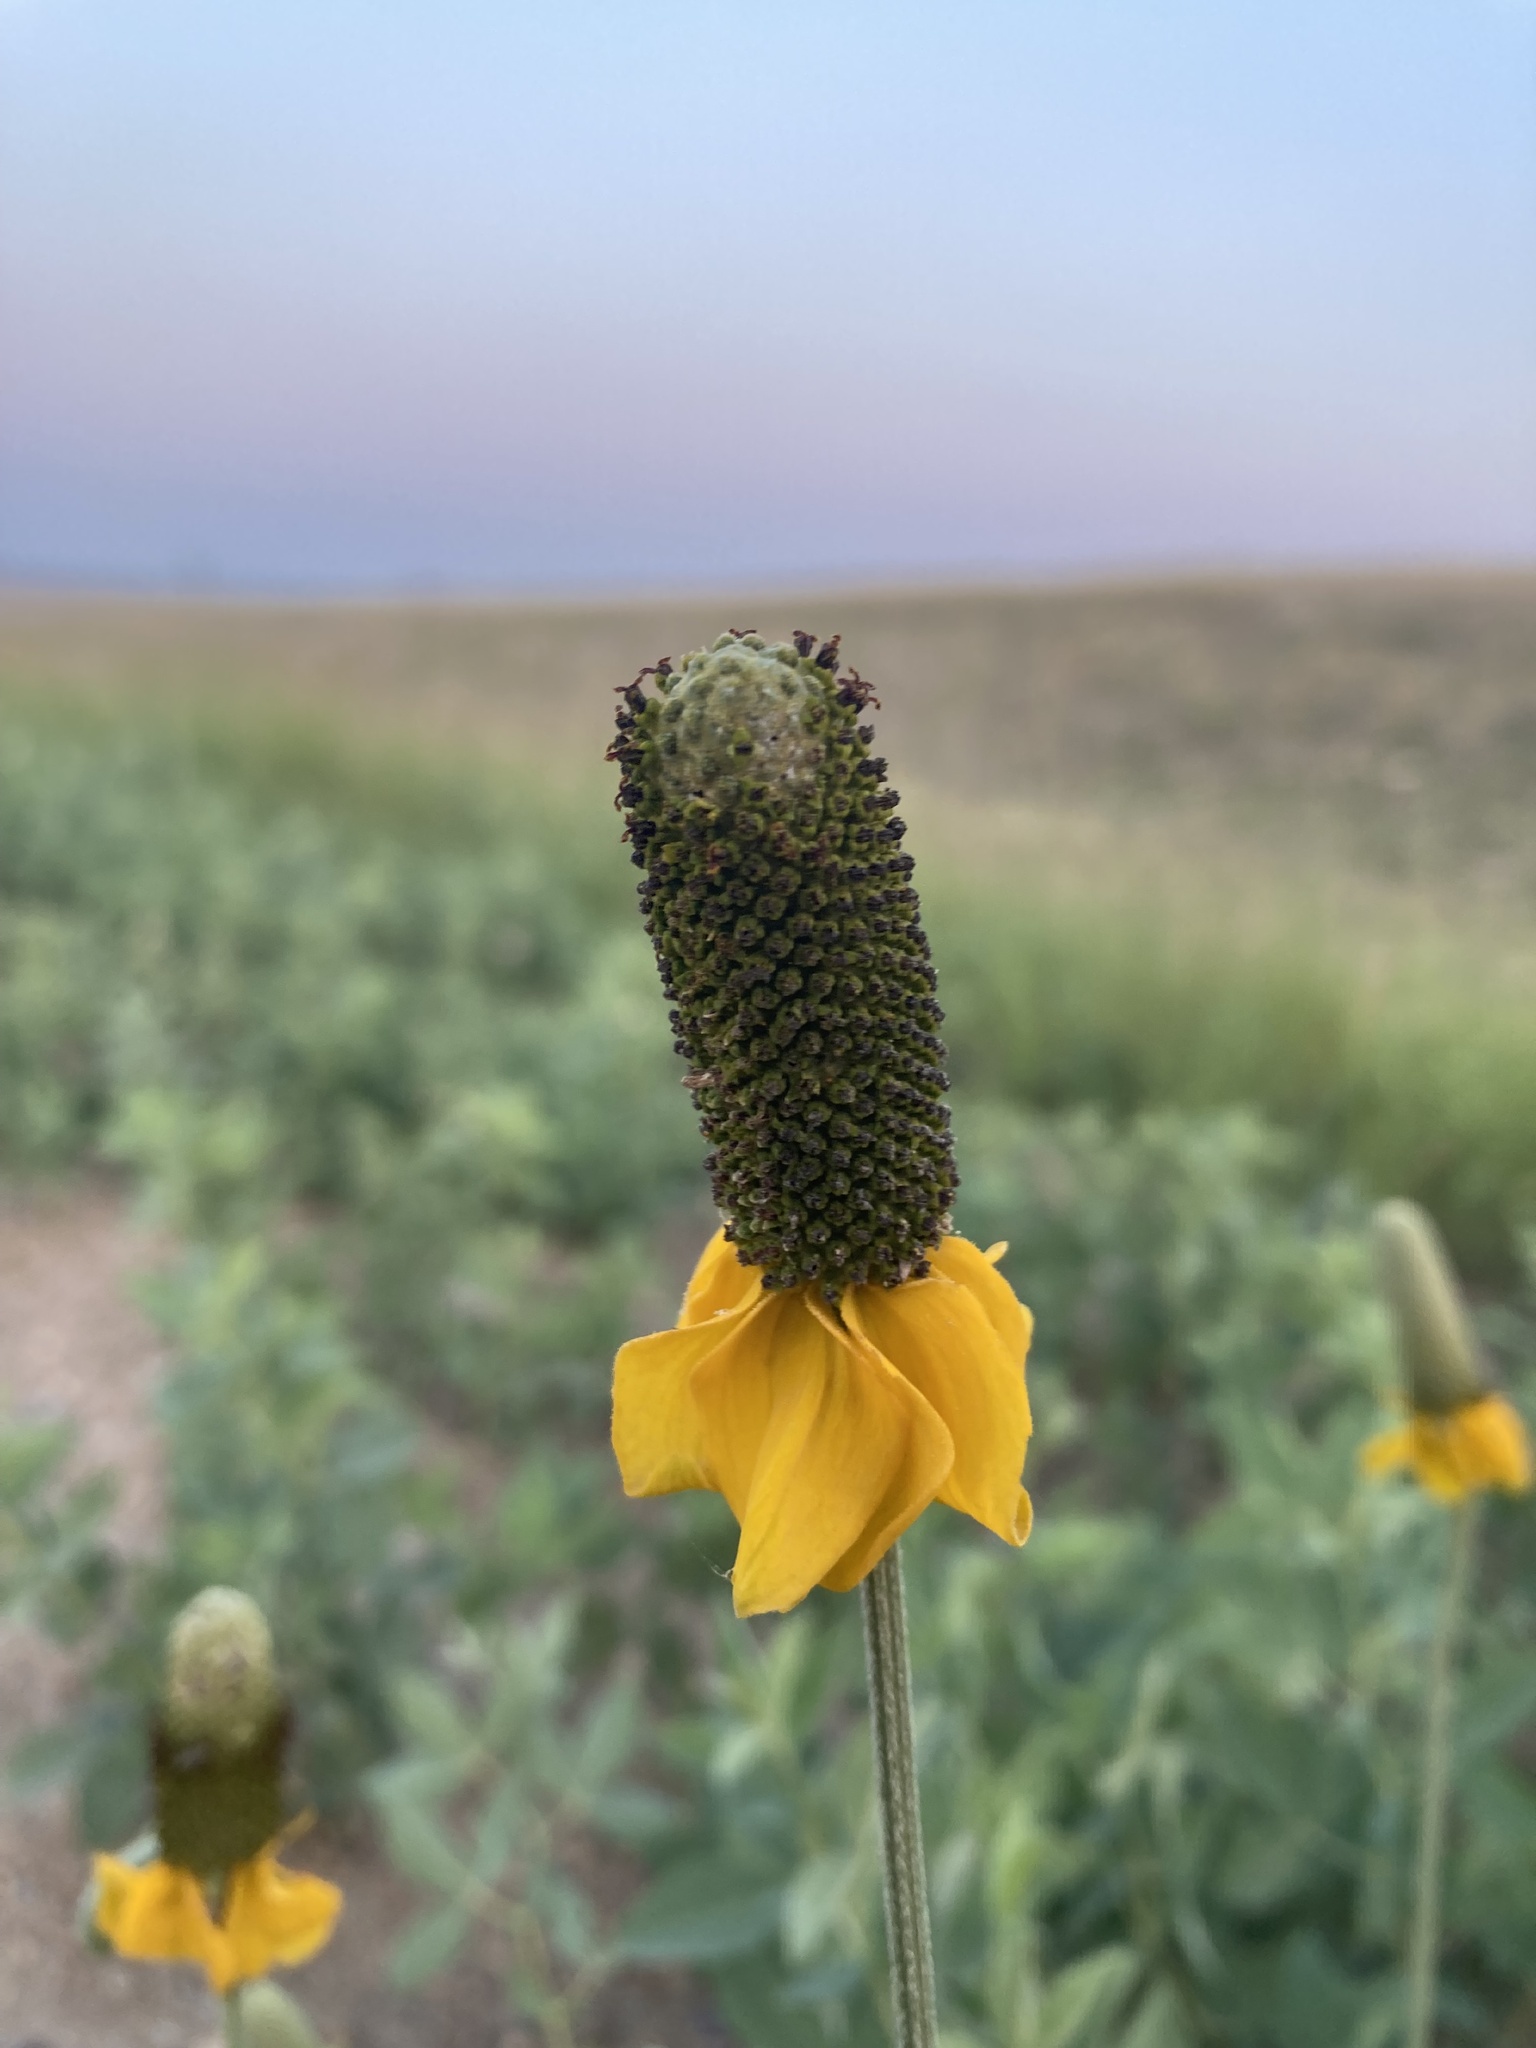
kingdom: Plantae
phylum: Tracheophyta
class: Magnoliopsida
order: Asterales
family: Asteraceae
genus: Ratibida
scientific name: Ratibida columnifera
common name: Prairie coneflower
